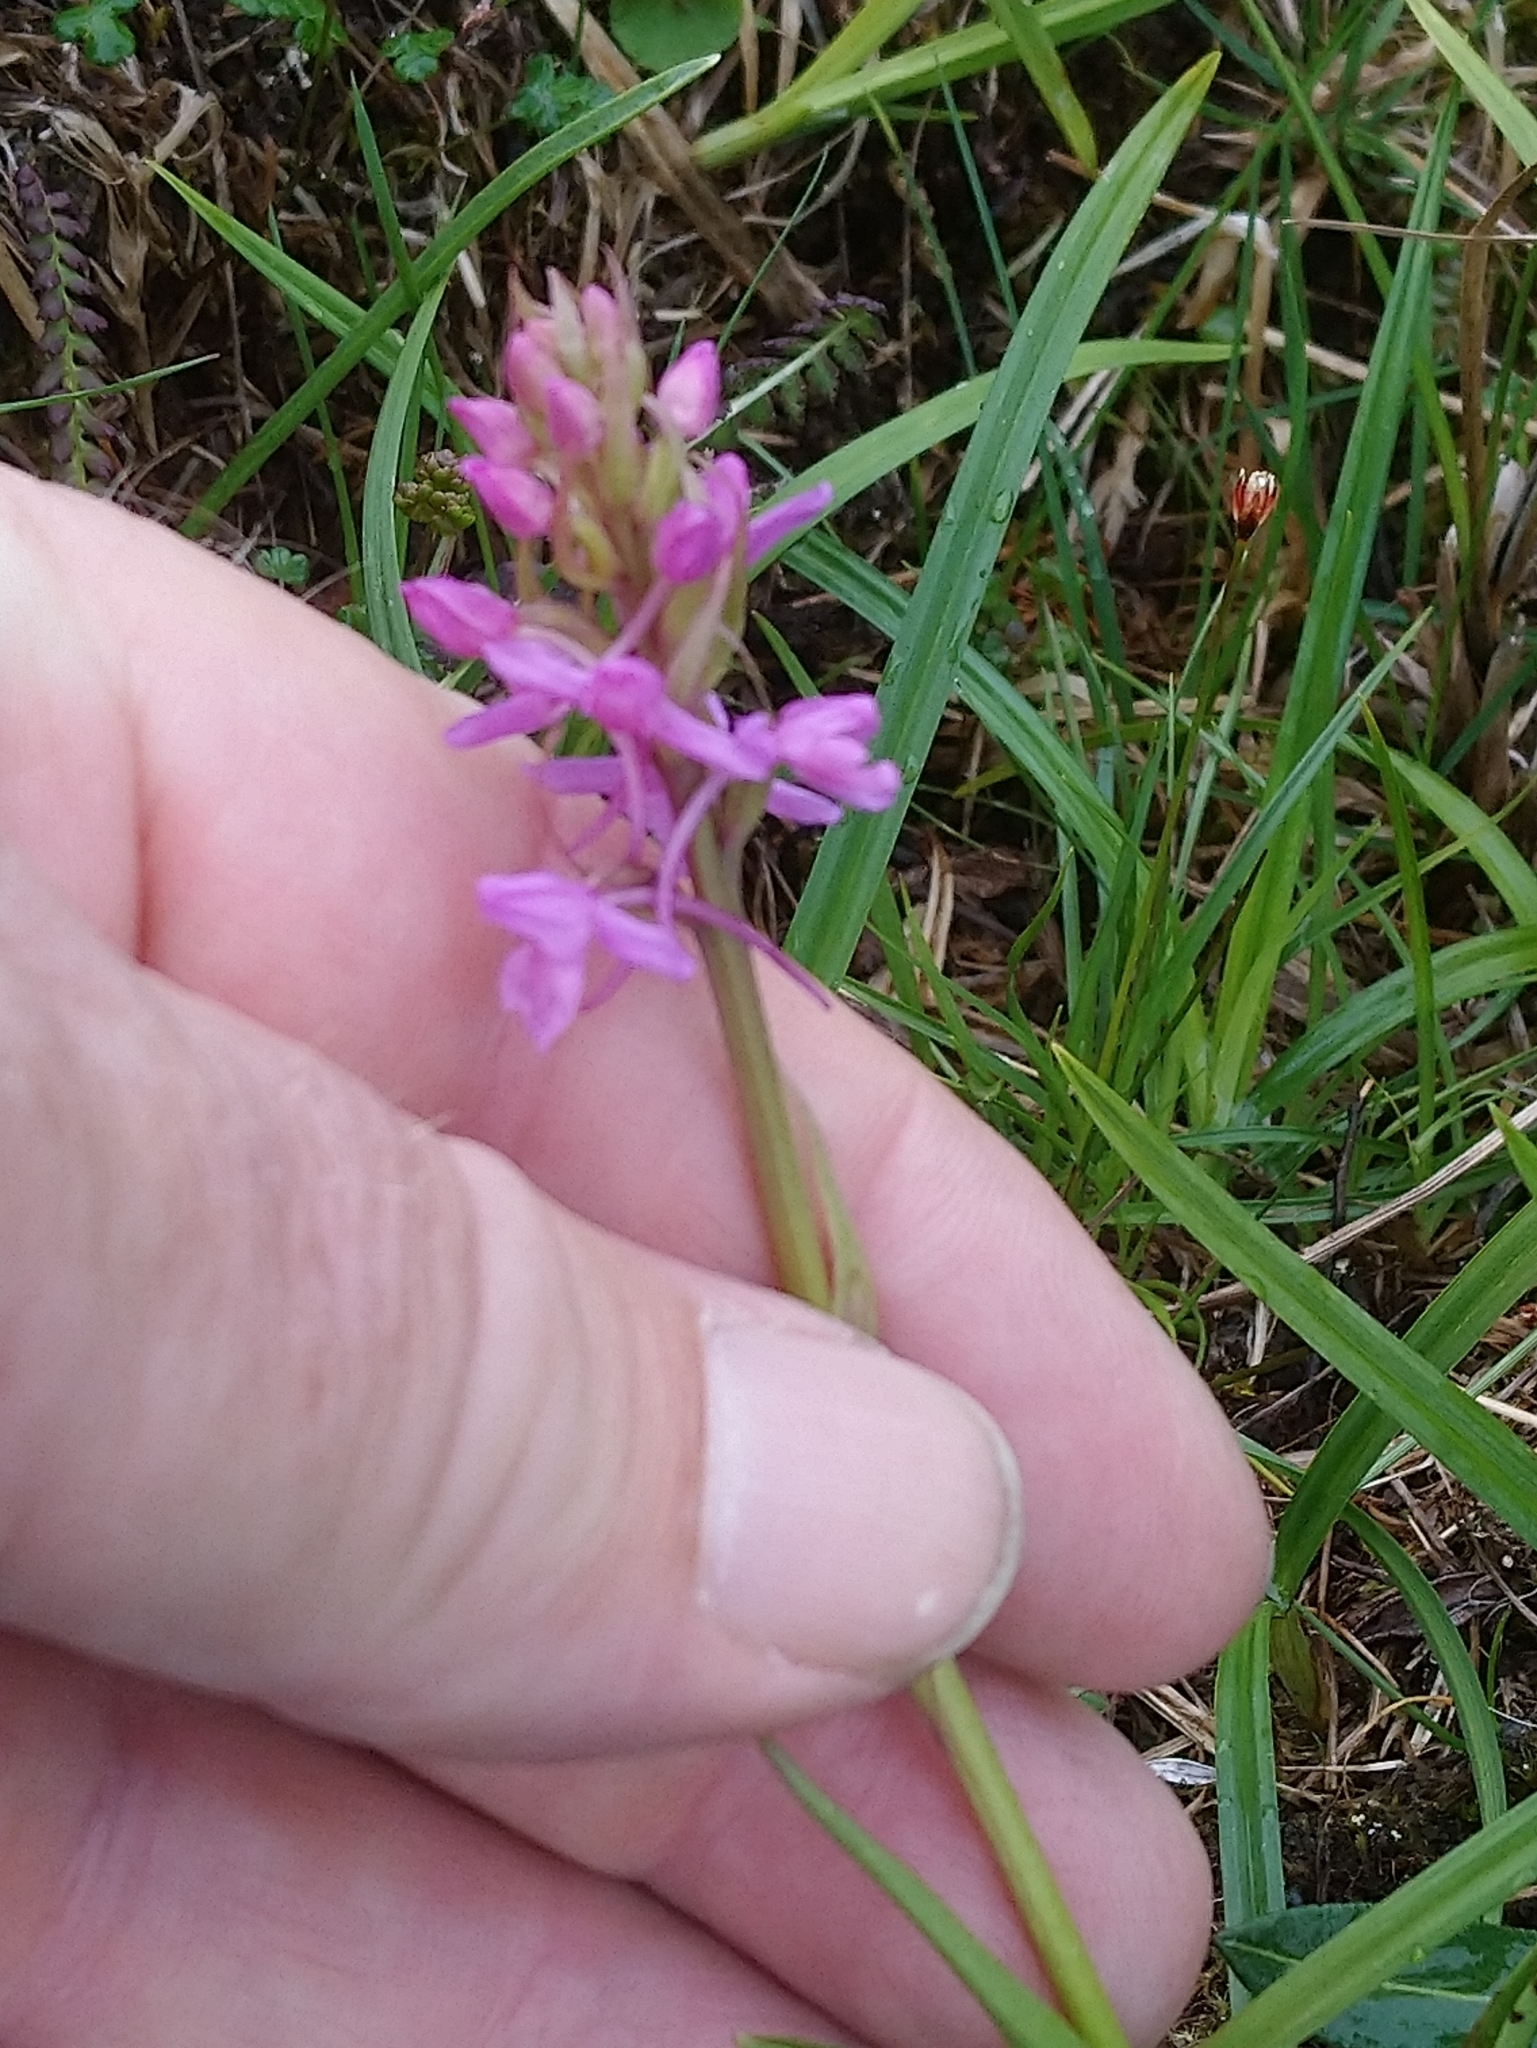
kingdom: Plantae
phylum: Tracheophyta
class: Liliopsida
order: Asparagales
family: Orchidaceae
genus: Gymnadenia
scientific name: Gymnadenia conopsea
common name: Fragrant orchid
